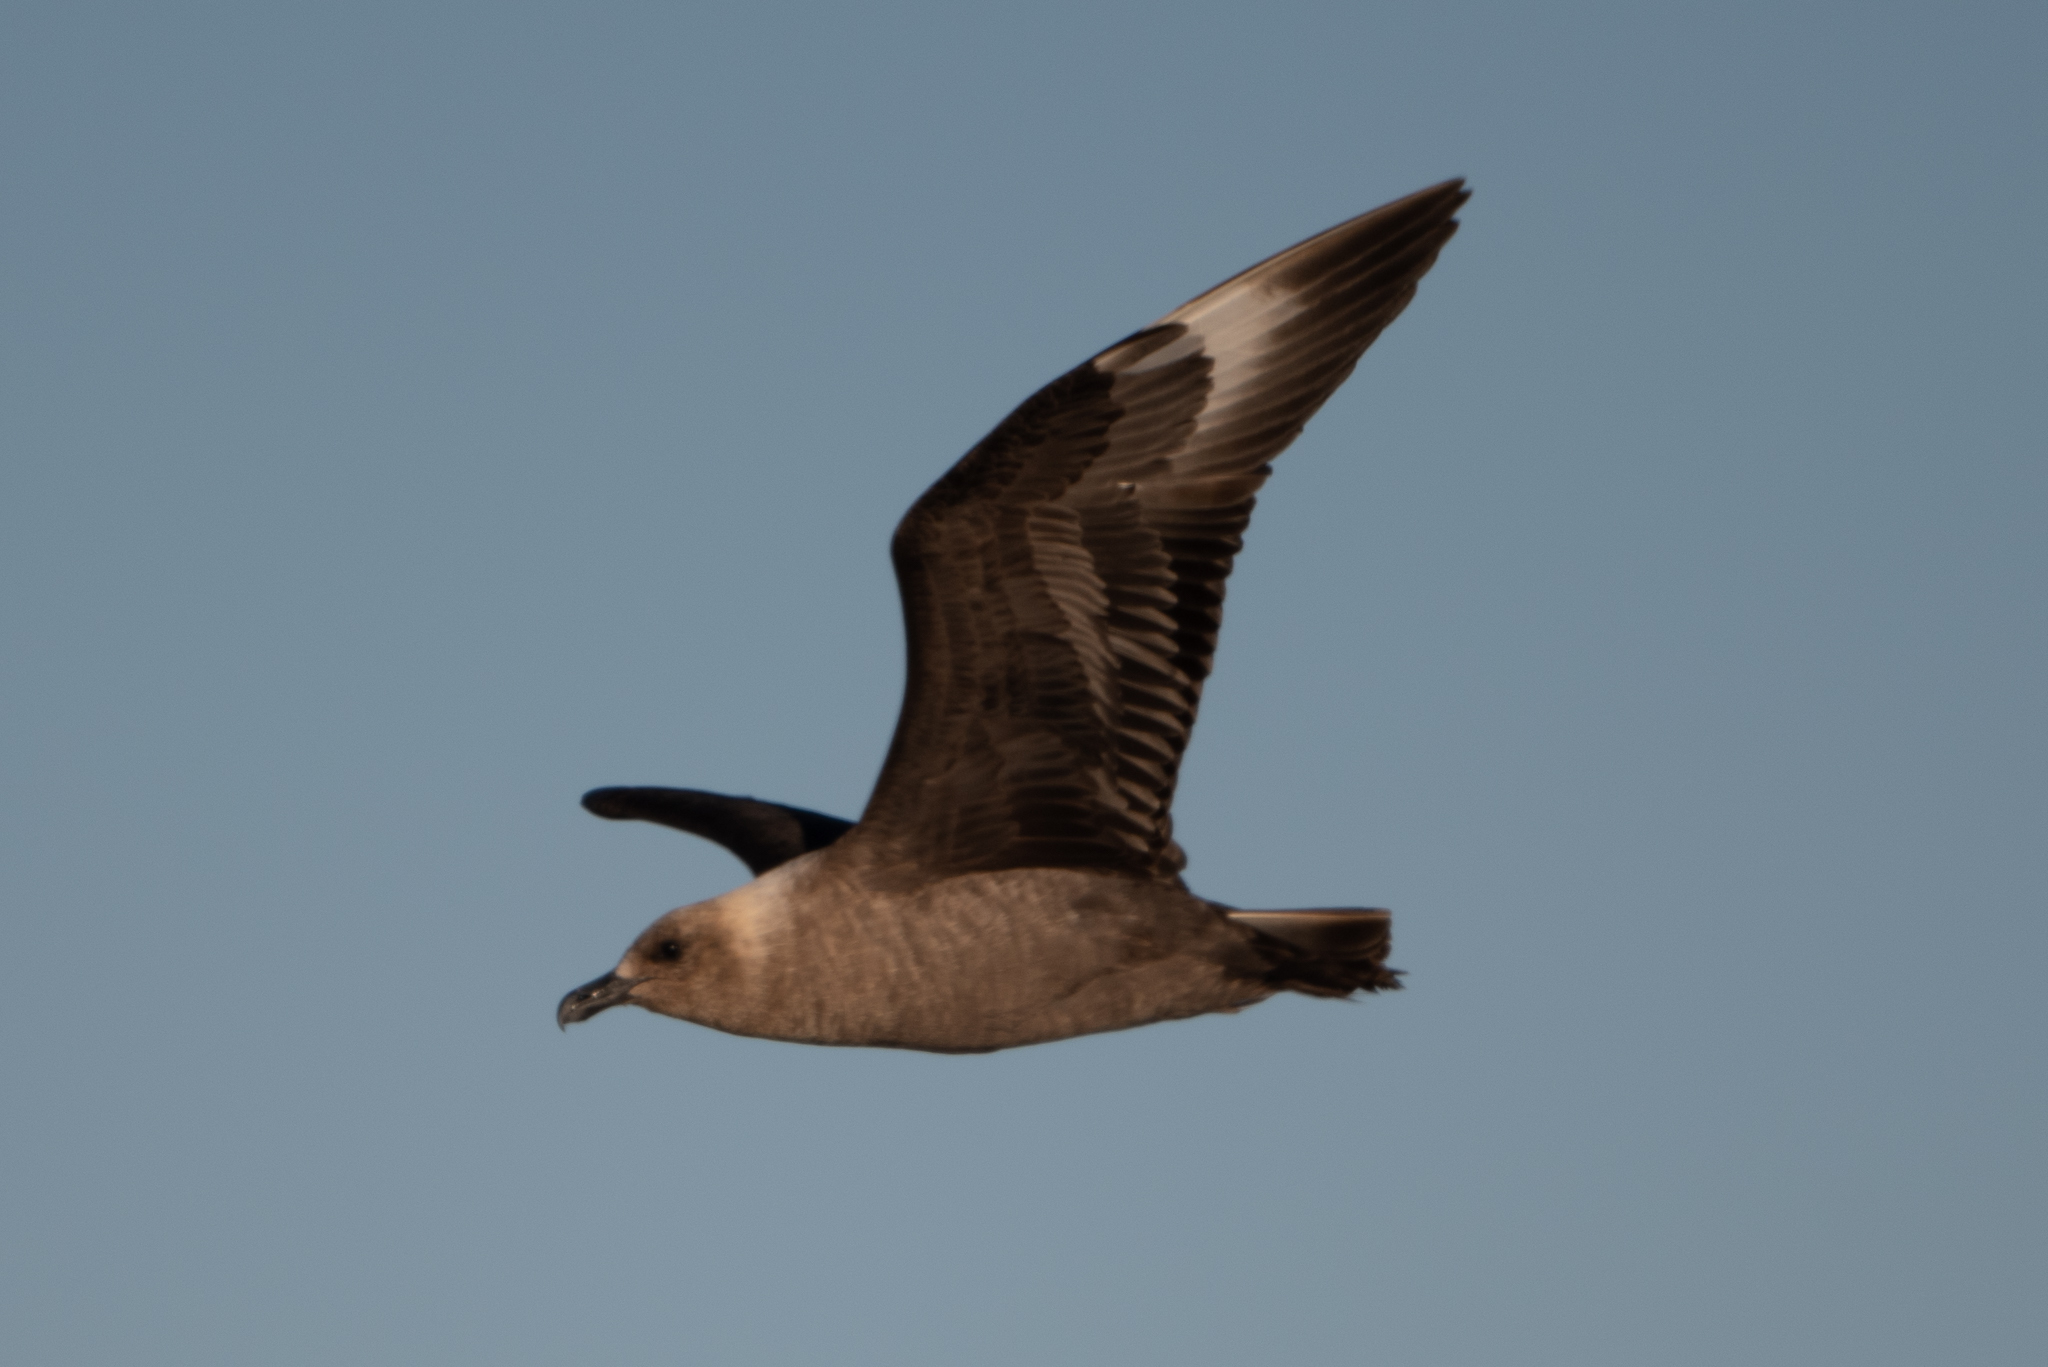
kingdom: Animalia
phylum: Chordata
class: Aves
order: Charadriiformes
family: Stercorariidae
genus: Stercorarius
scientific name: Stercorarius maccormicki
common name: South polar skua
